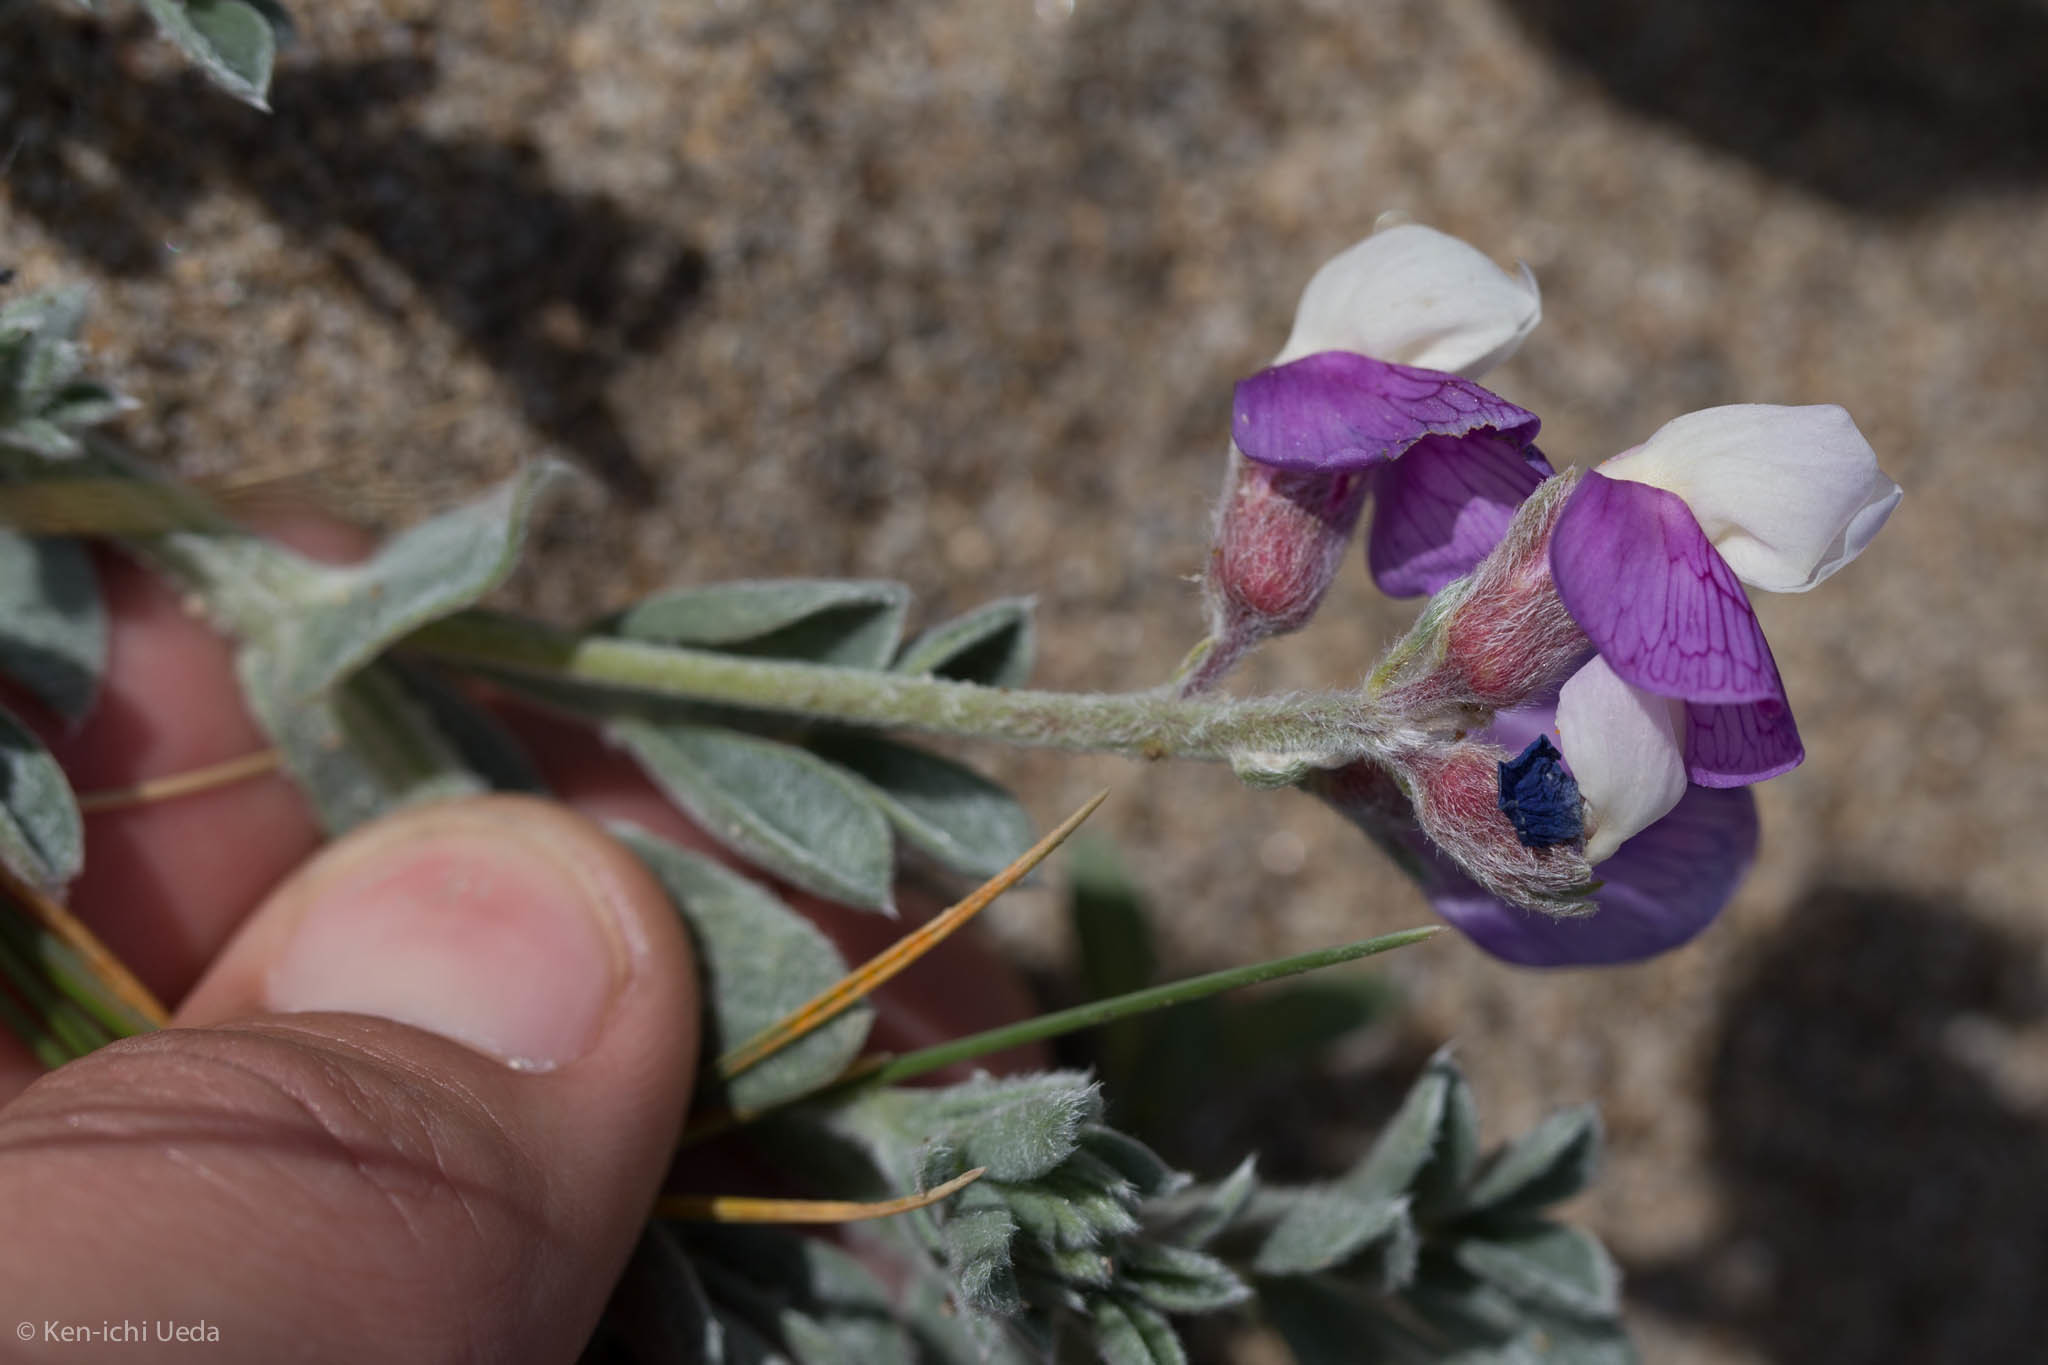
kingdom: Plantae
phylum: Tracheophyta
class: Magnoliopsida
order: Fabales
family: Fabaceae
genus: Lathyrus
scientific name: Lathyrus littoralis
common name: Dune sweet pea
